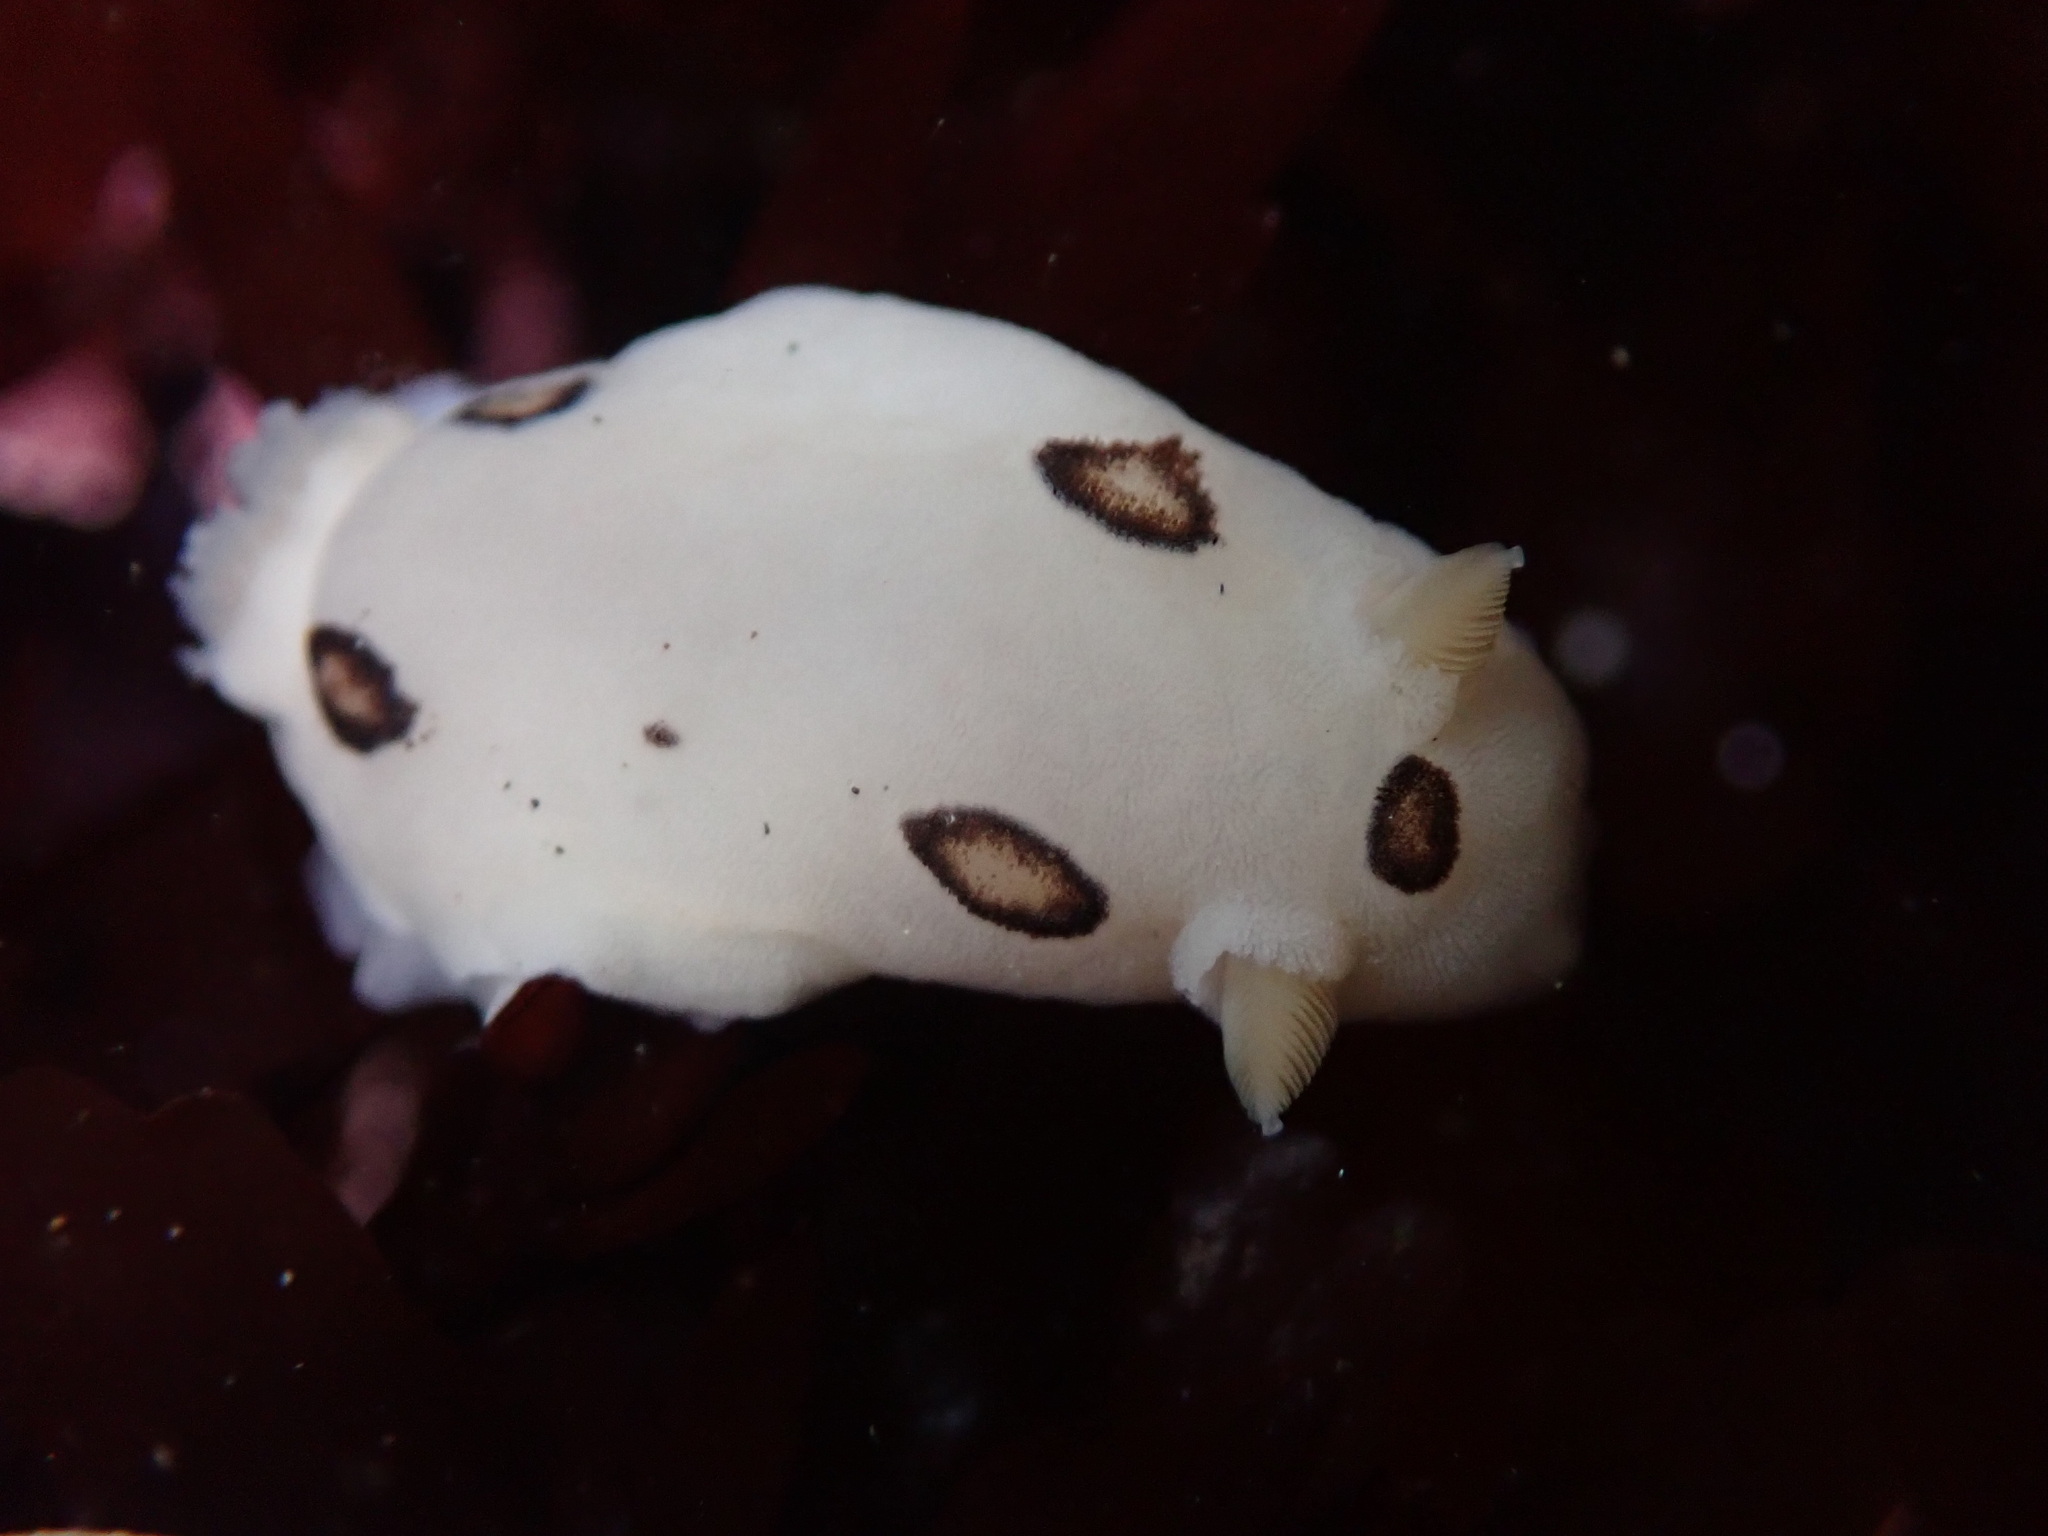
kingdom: Animalia
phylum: Mollusca
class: Gastropoda
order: Nudibranchia
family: Discodorididae
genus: Diaulula
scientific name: Diaulula sandiegensis
